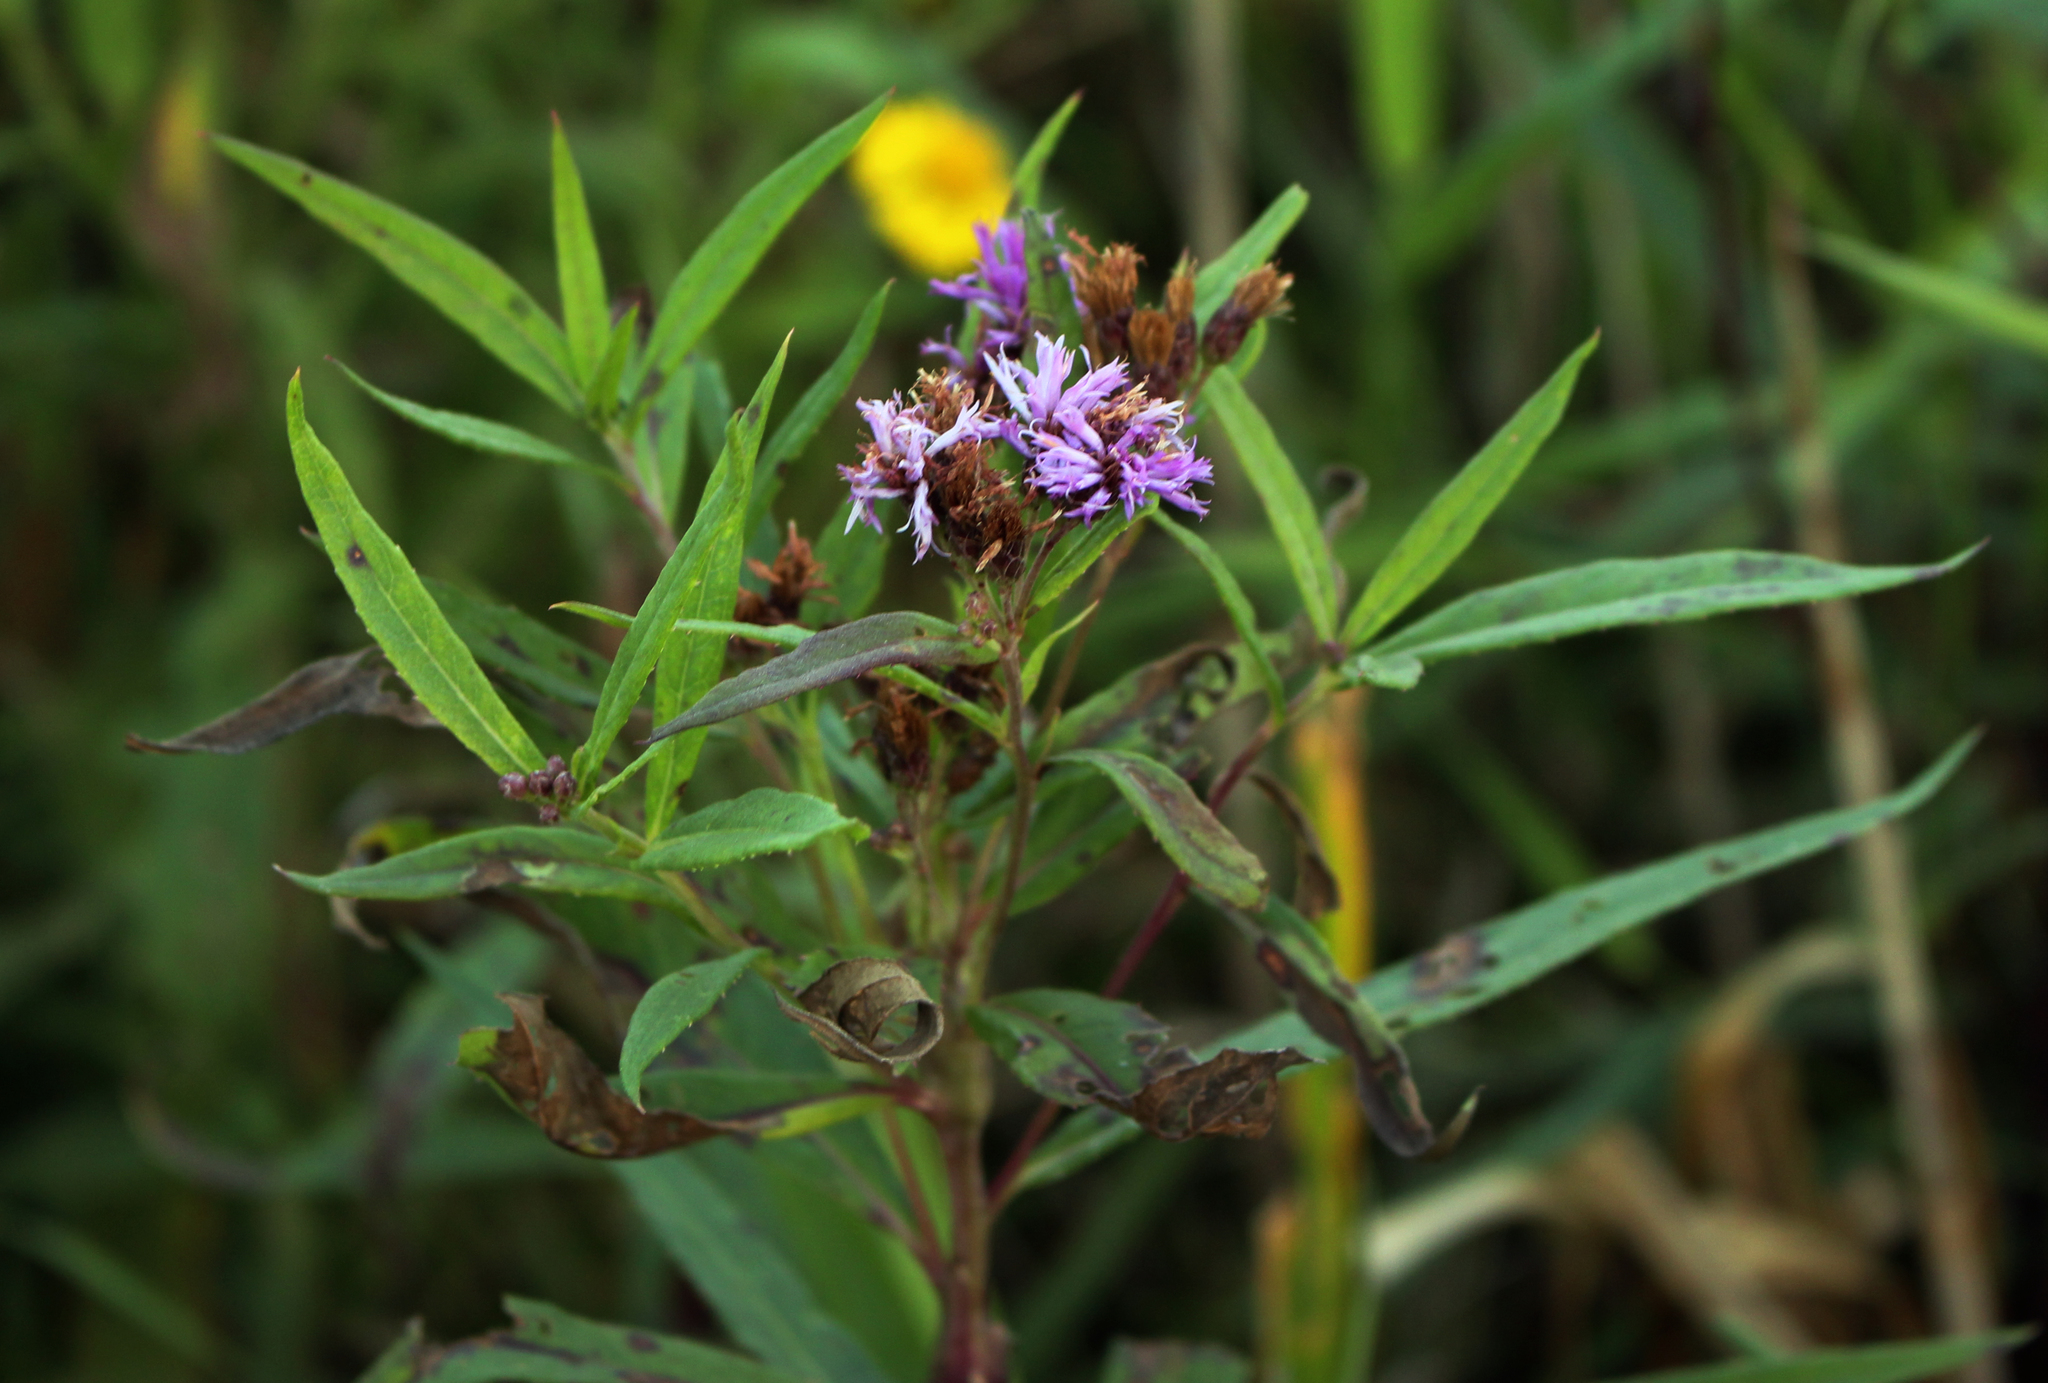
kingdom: Plantae
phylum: Tracheophyta
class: Magnoliopsida
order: Asterales
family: Asteraceae
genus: Vernonia
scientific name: Vernonia fasciculata
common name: Fascicled ironweed
